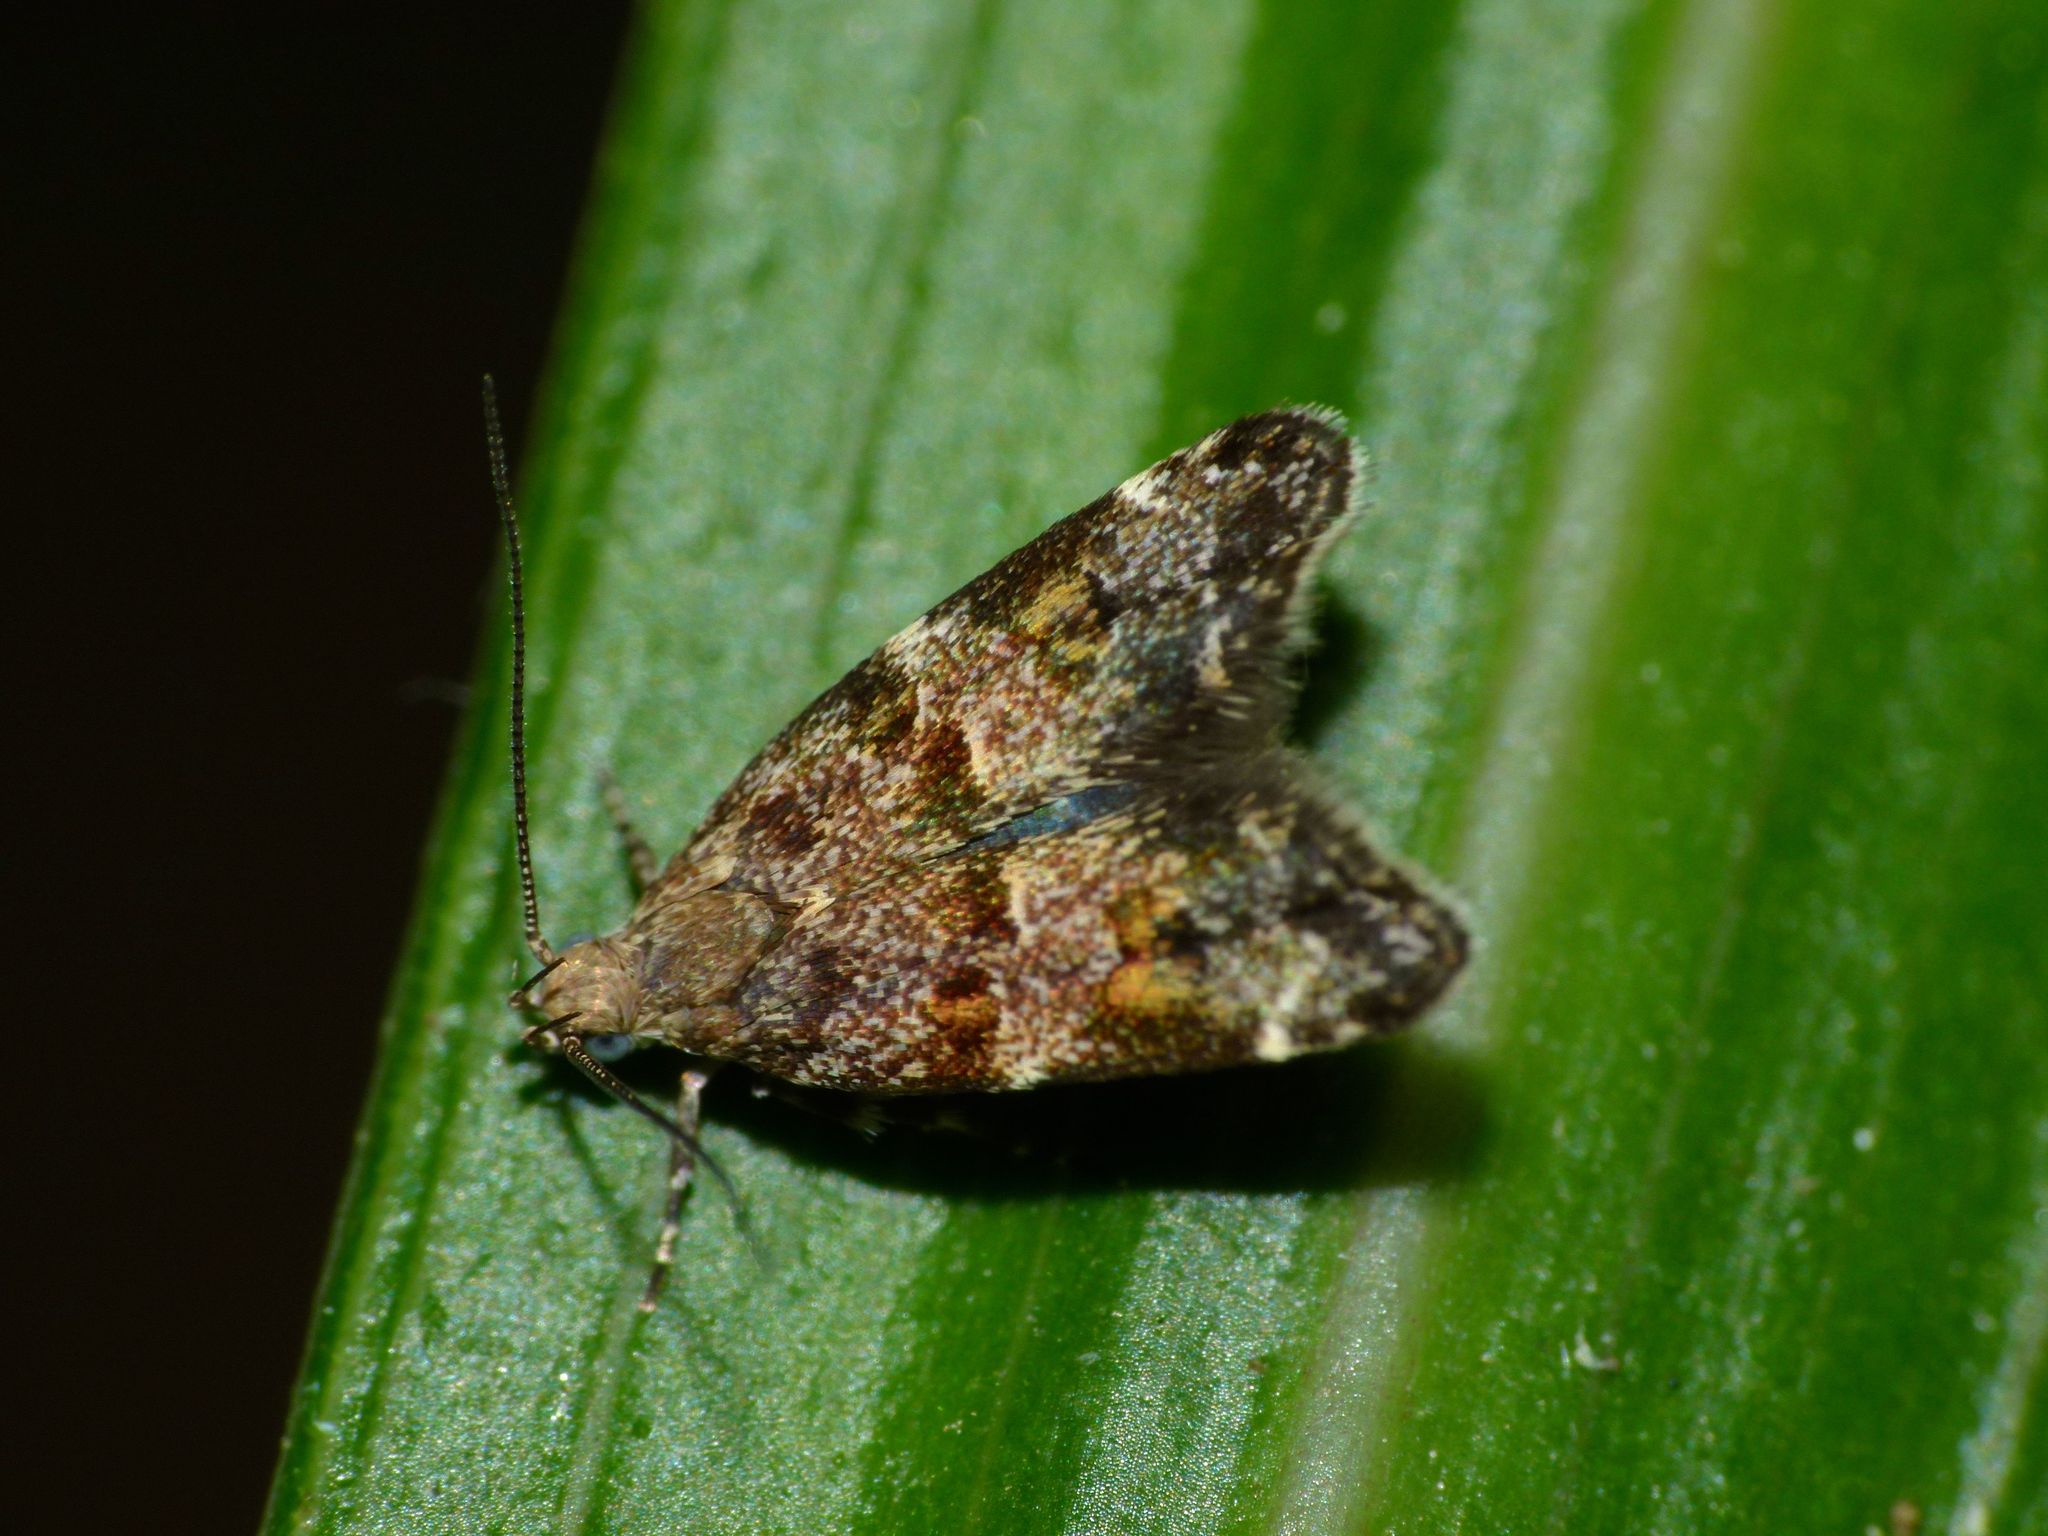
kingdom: Animalia
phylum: Arthropoda
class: Insecta
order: Lepidoptera
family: Oecophoridae
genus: Gymnobathra
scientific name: Gymnobathra omphalota
